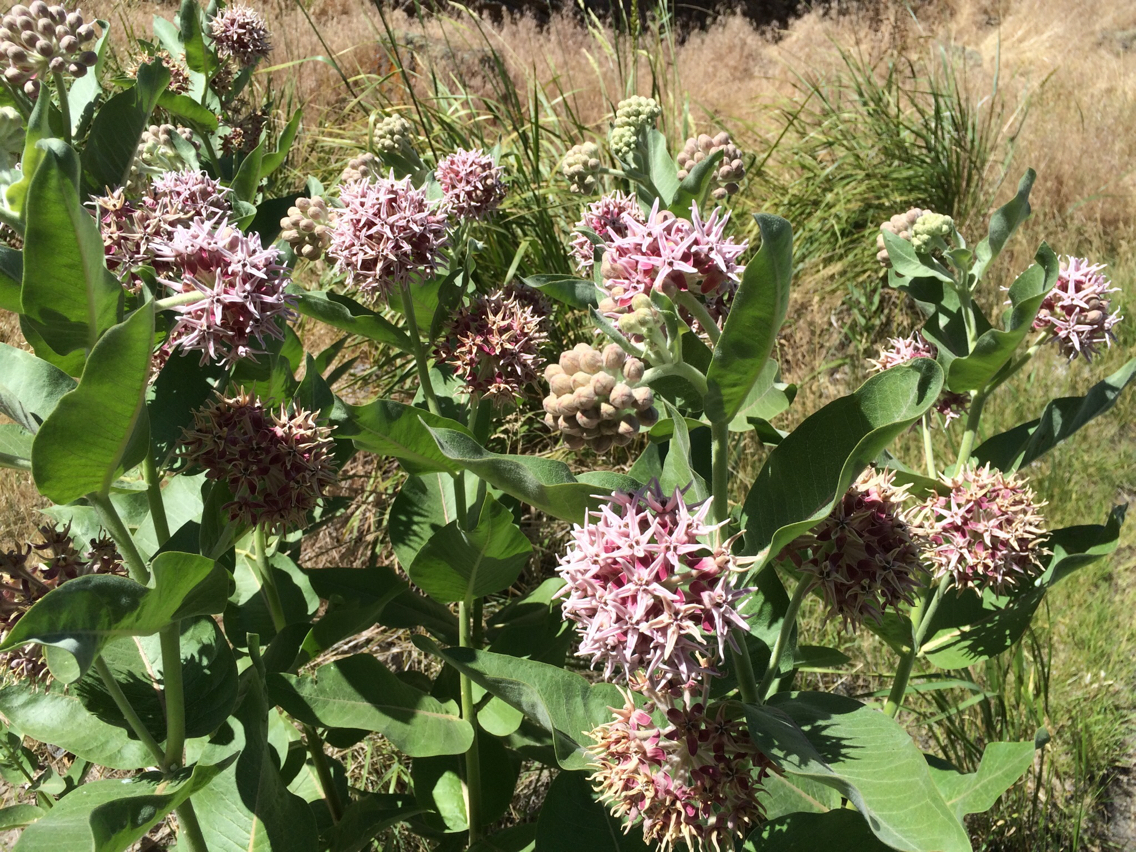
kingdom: Plantae
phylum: Tracheophyta
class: Magnoliopsida
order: Gentianales
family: Apocynaceae
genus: Asclepias
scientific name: Asclepias speciosa
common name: Showy milkweed
